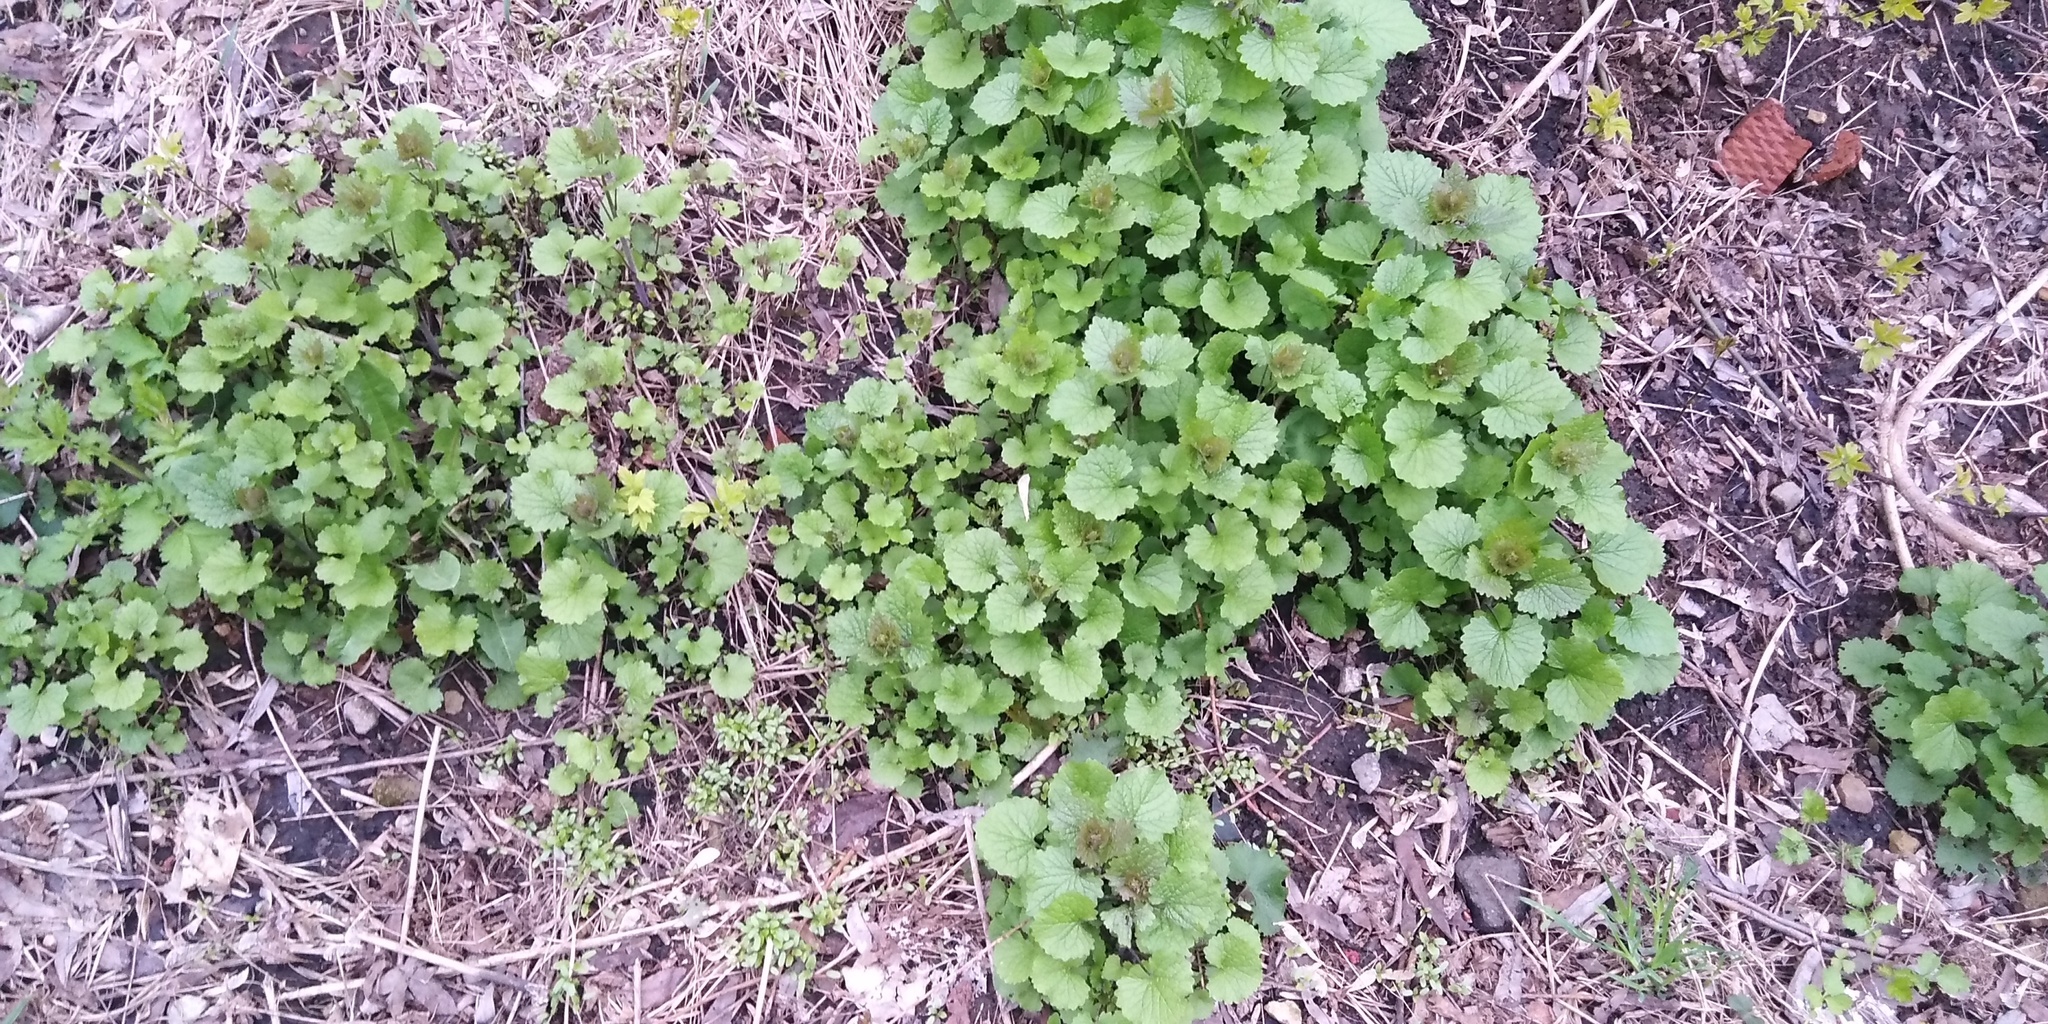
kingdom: Plantae
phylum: Tracheophyta
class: Magnoliopsida
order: Brassicales
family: Brassicaceae
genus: Alliaria
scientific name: Alliaria petiolata
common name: Garlic mustard
